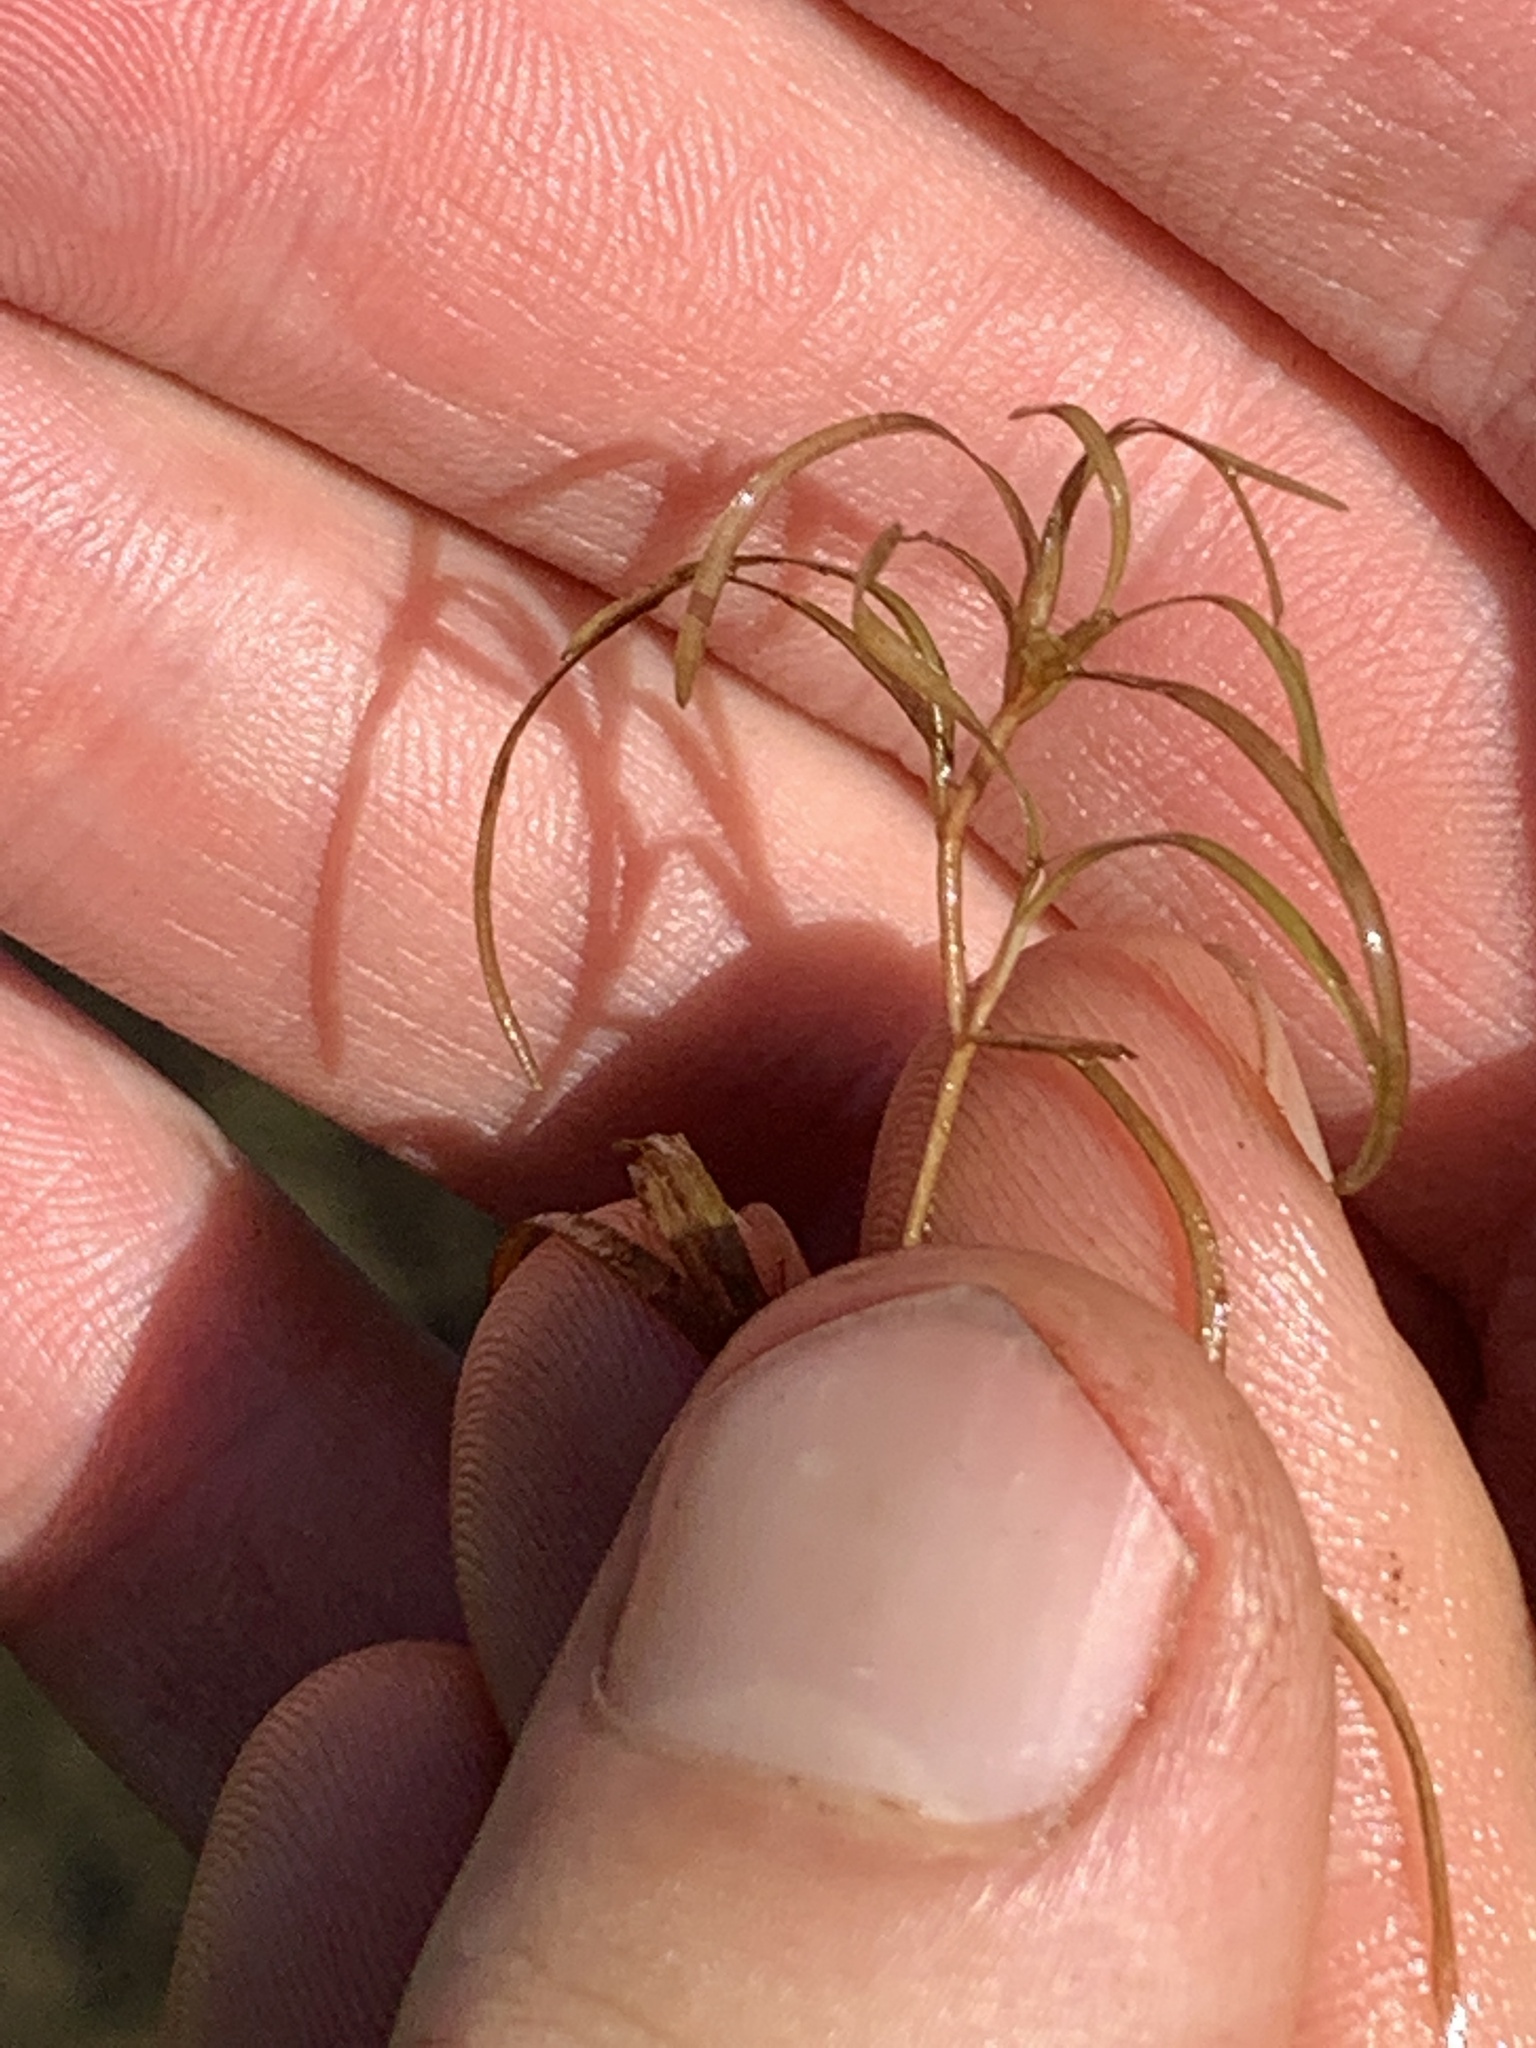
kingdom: Plantae
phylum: Tracheophyta
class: Liliopsida
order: Alismatales
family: Potamogetonaceae
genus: Potamogeton
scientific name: Potamogeton spirillus
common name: Northern snail-seed pondweed
